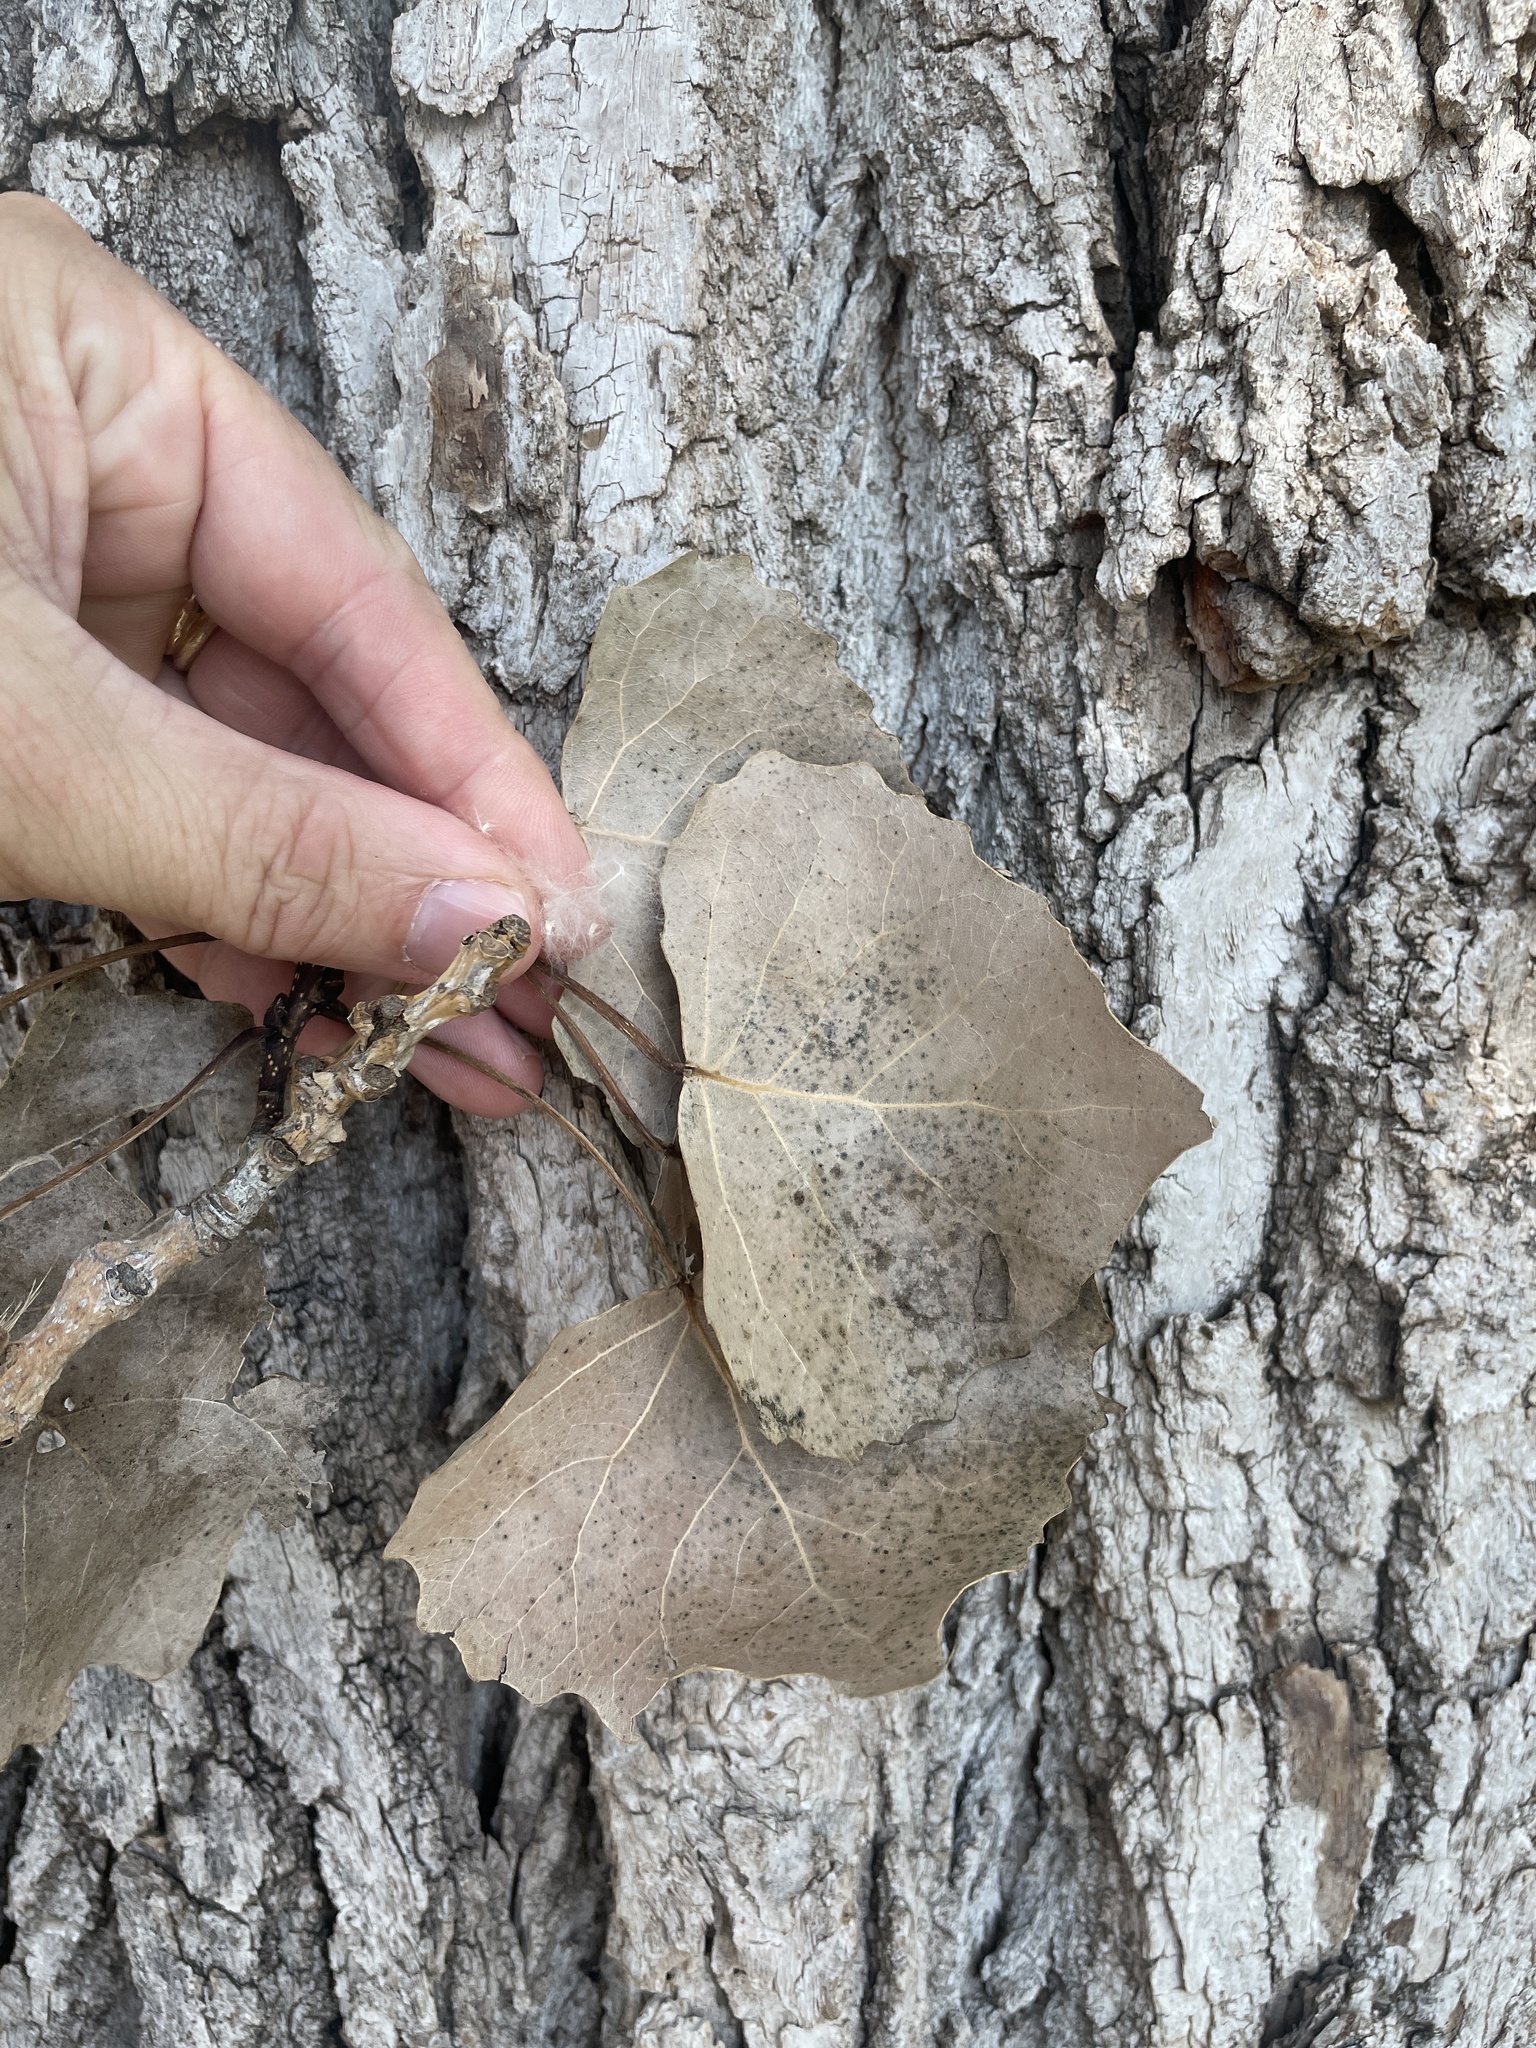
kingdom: Plantae
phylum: Tracheophyta
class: Magnoliopsida
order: Malpighiales
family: Salicaceae
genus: Populus
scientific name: Populus deltoides
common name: Eastern cottonwood
